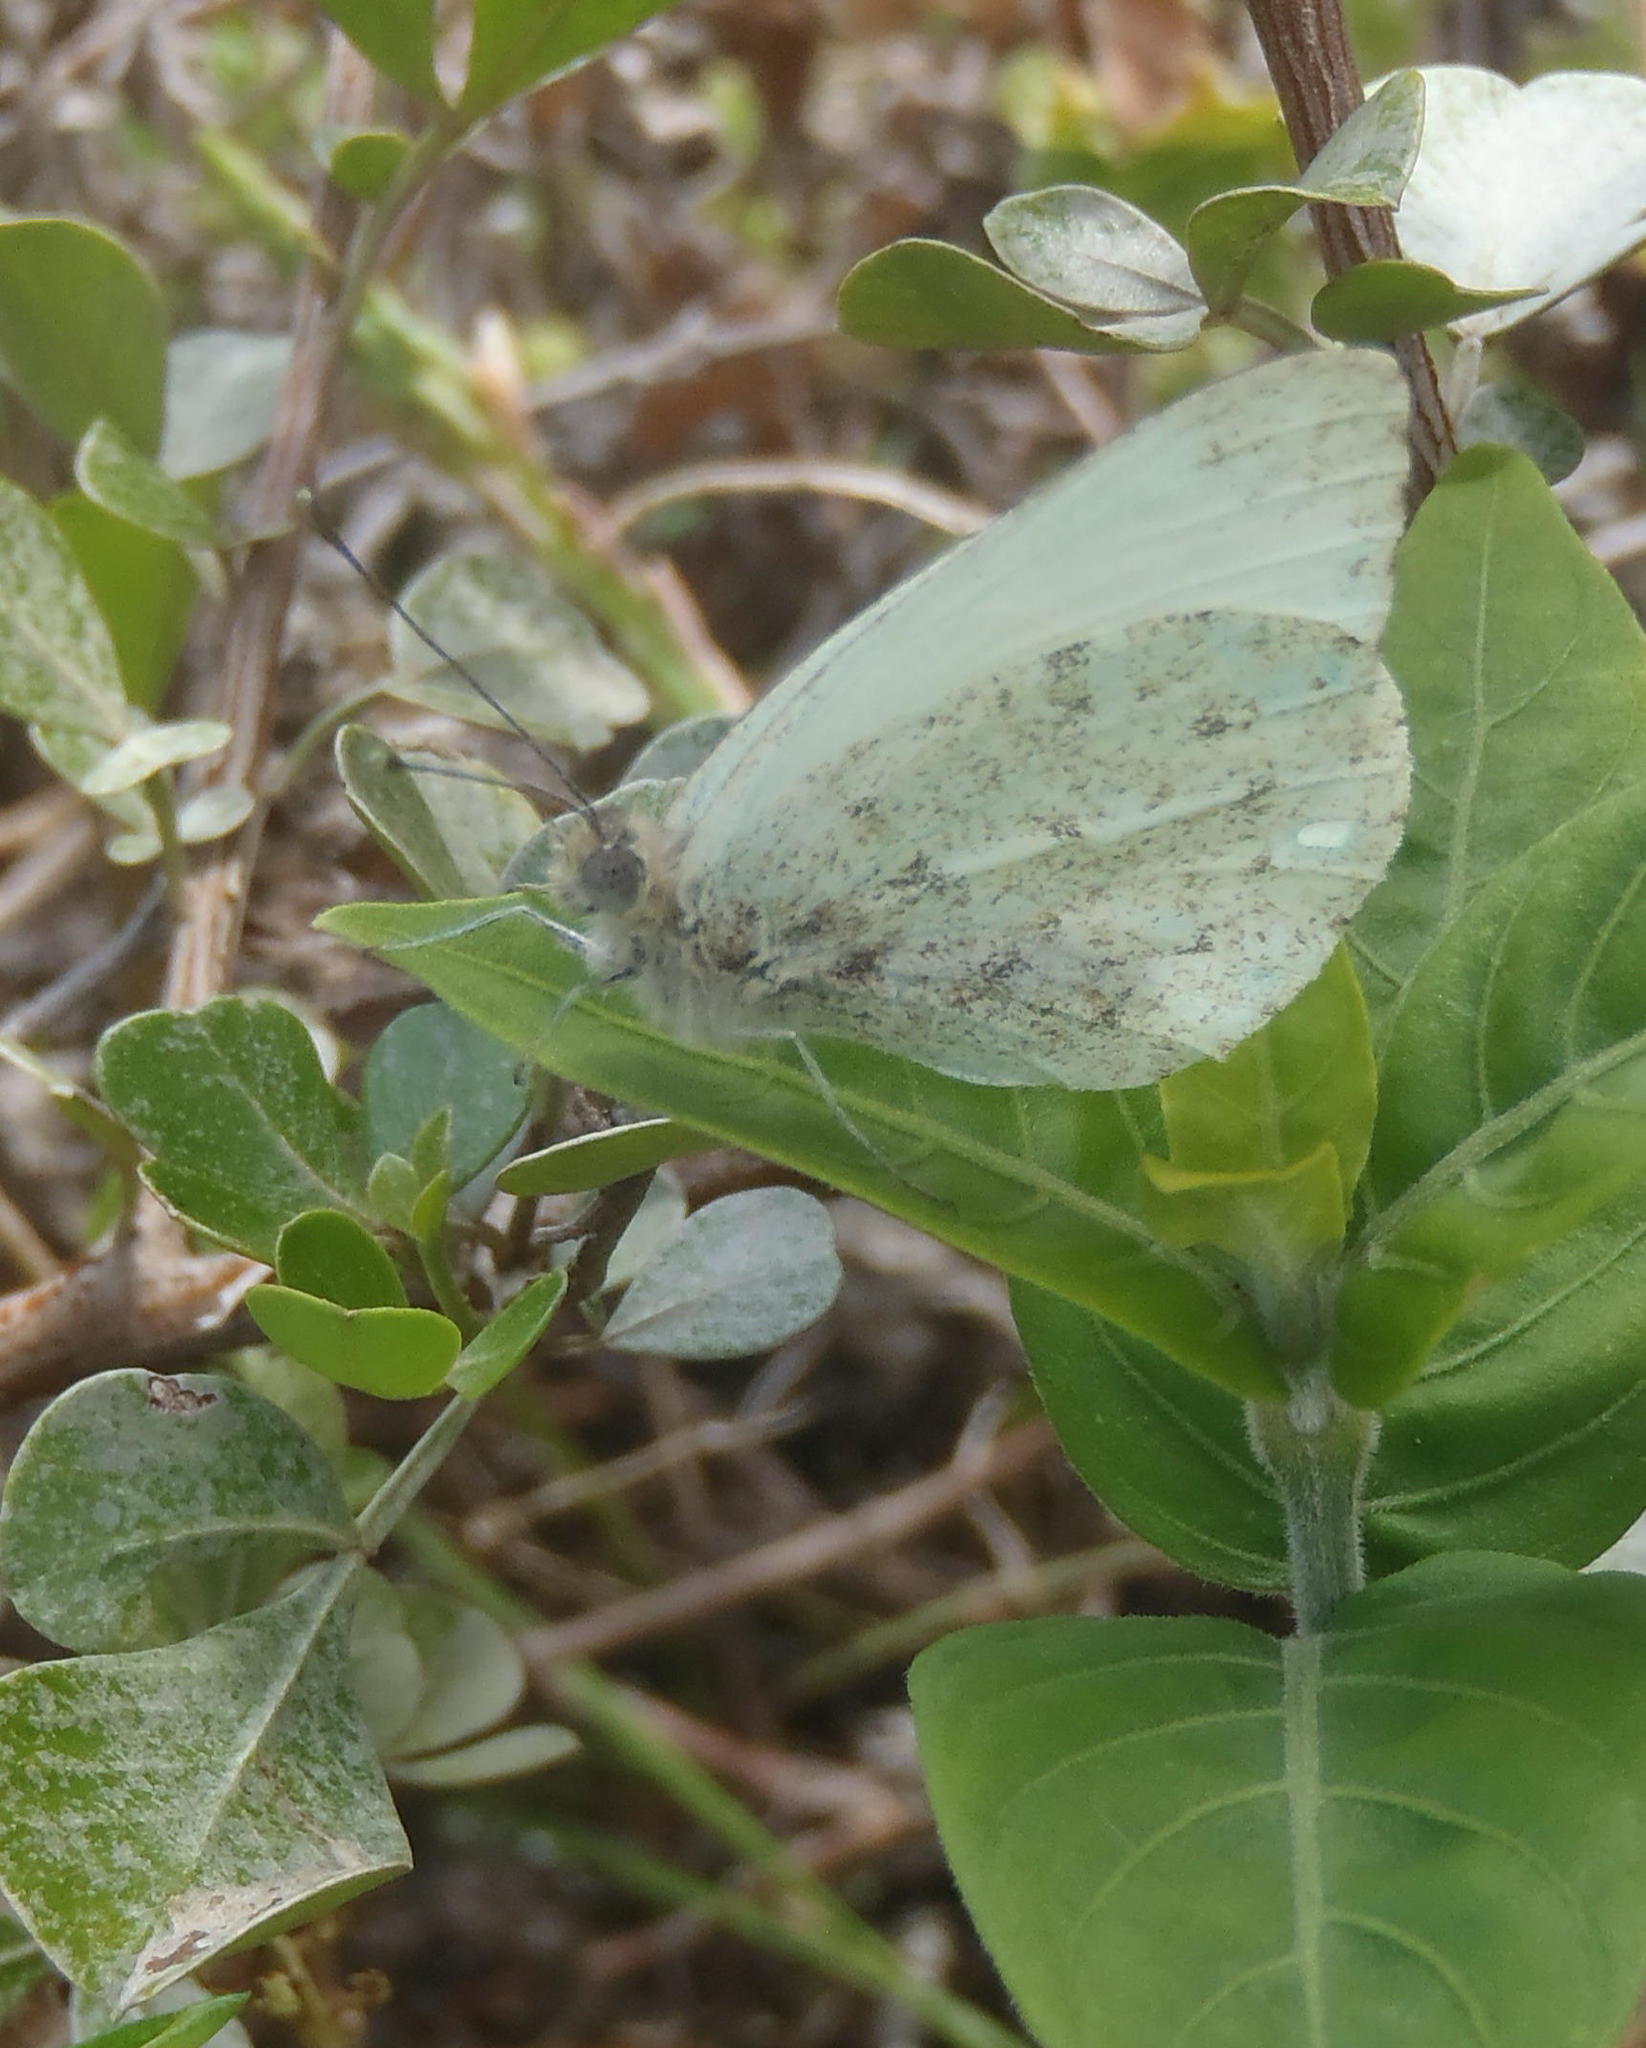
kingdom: Animalia
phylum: Arthropoda
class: Insecta
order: Lepidoptera
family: Pieridae
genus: Dixeia
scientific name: Dixeia charina
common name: African small white
